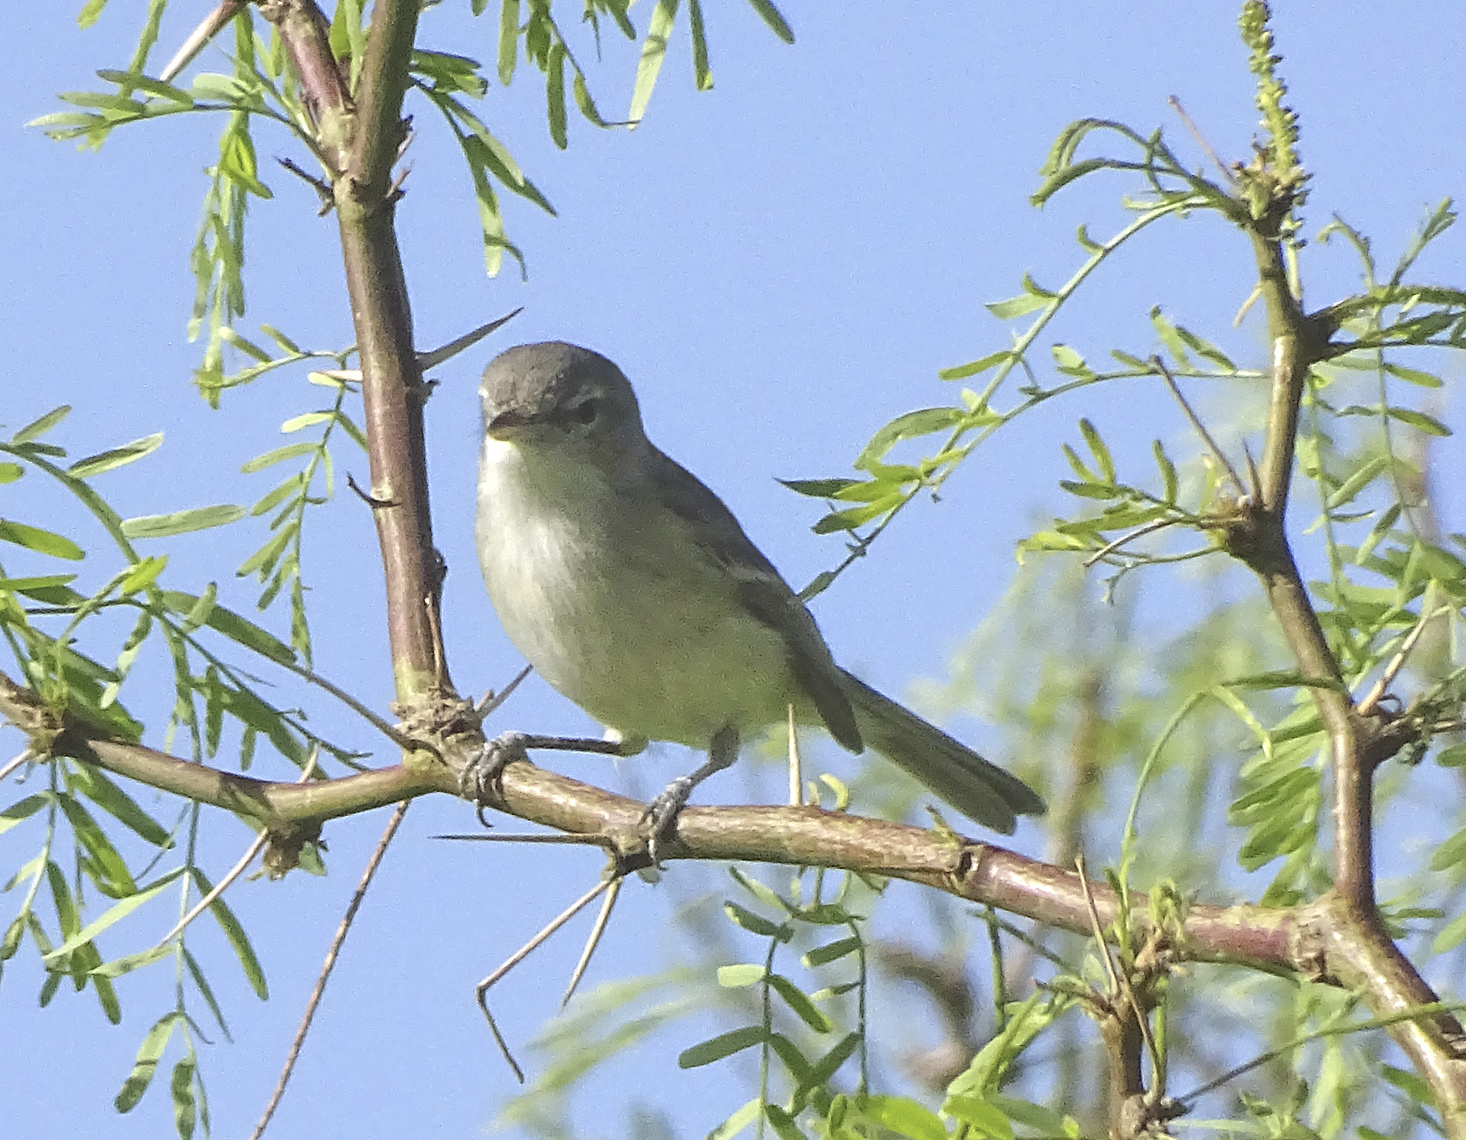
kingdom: Animalia
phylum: Chordata
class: Aves
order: Passeriformes
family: Vireonidae
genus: Vireo
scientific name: Vireo bellii
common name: Bell's vireo
